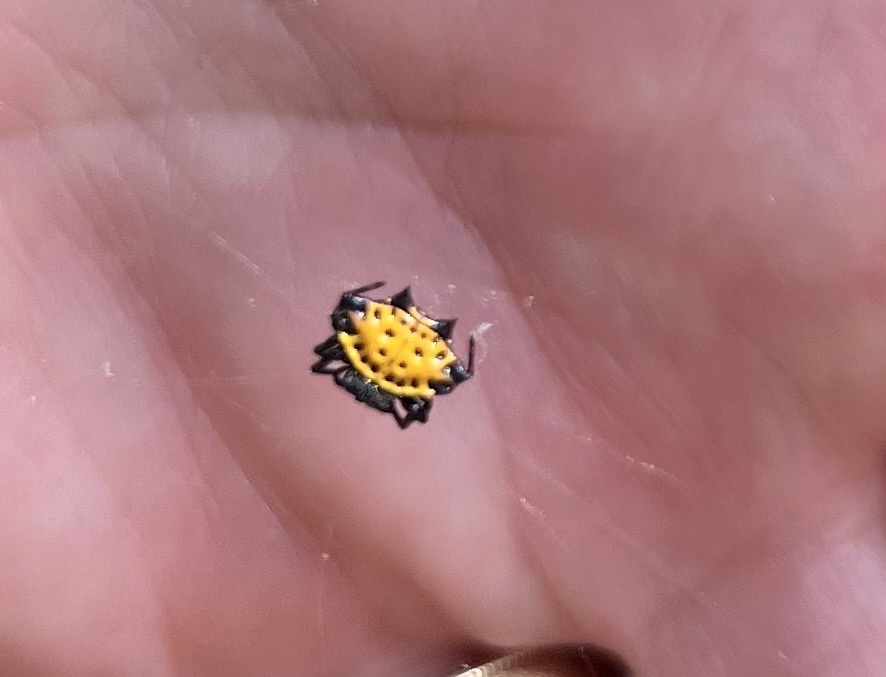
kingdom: Animalia
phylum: Arthropoda
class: Arachnida
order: Araneae
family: Araneidae
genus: Gasteracantha
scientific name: Gasteracantha cancriformis
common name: Orb weavers
